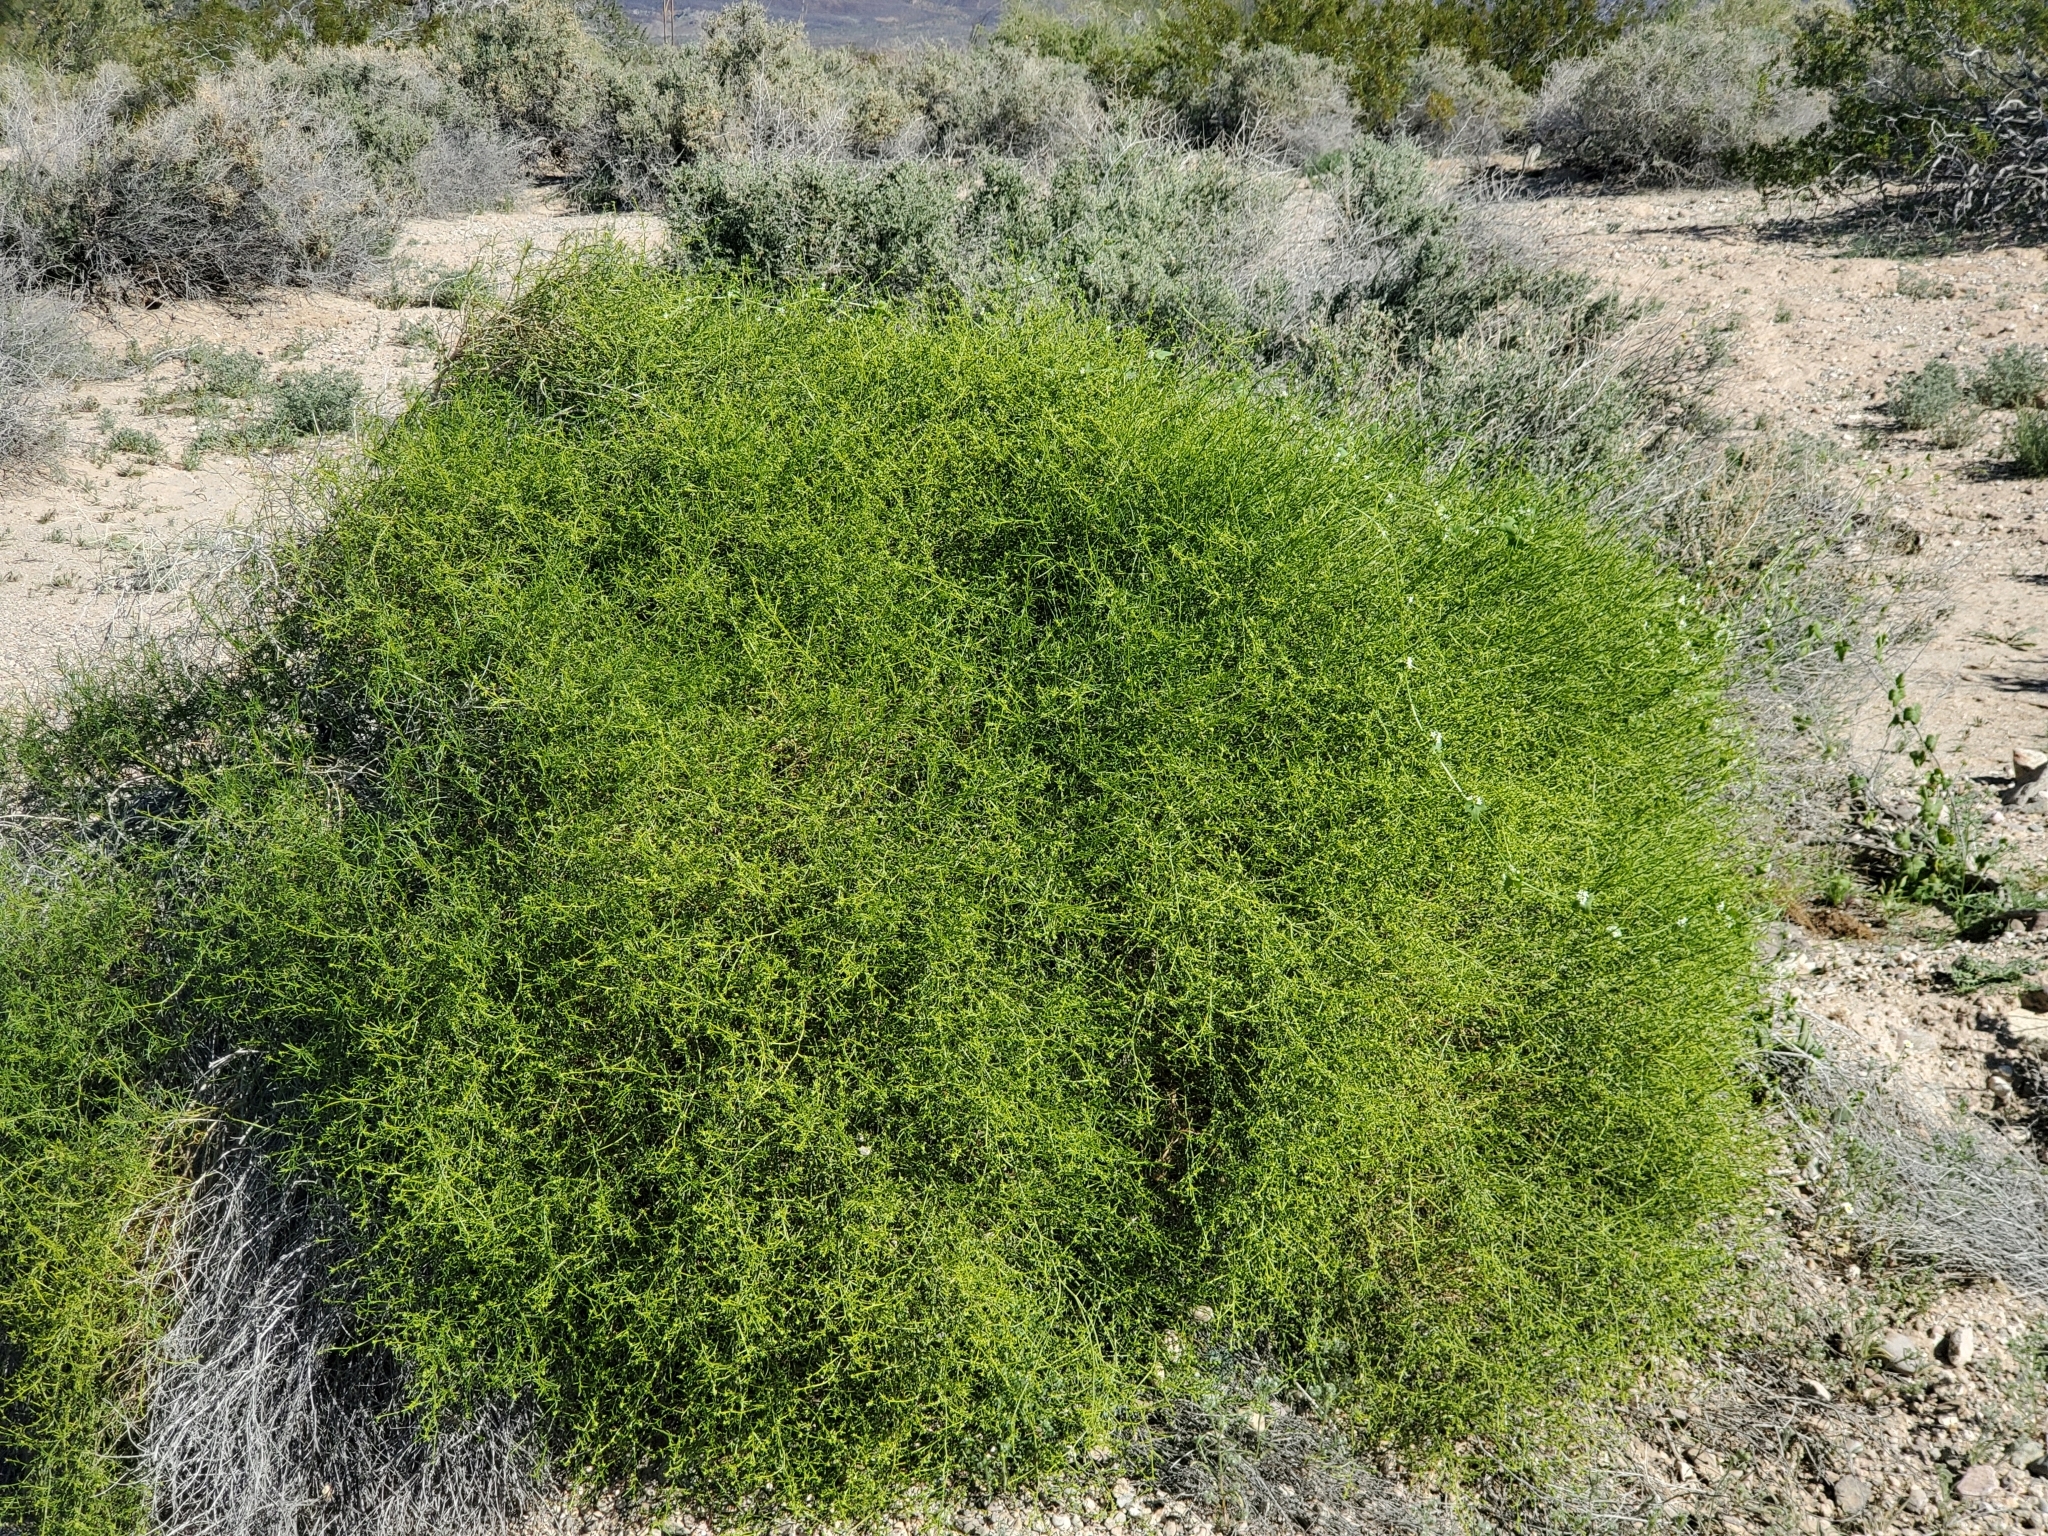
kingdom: Plantae
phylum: Tracheophyta
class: Magnoliopsida
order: Asterales
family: Asteraceae
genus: Ambrosia
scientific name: Ambrosia salsola
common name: Burrobrush
